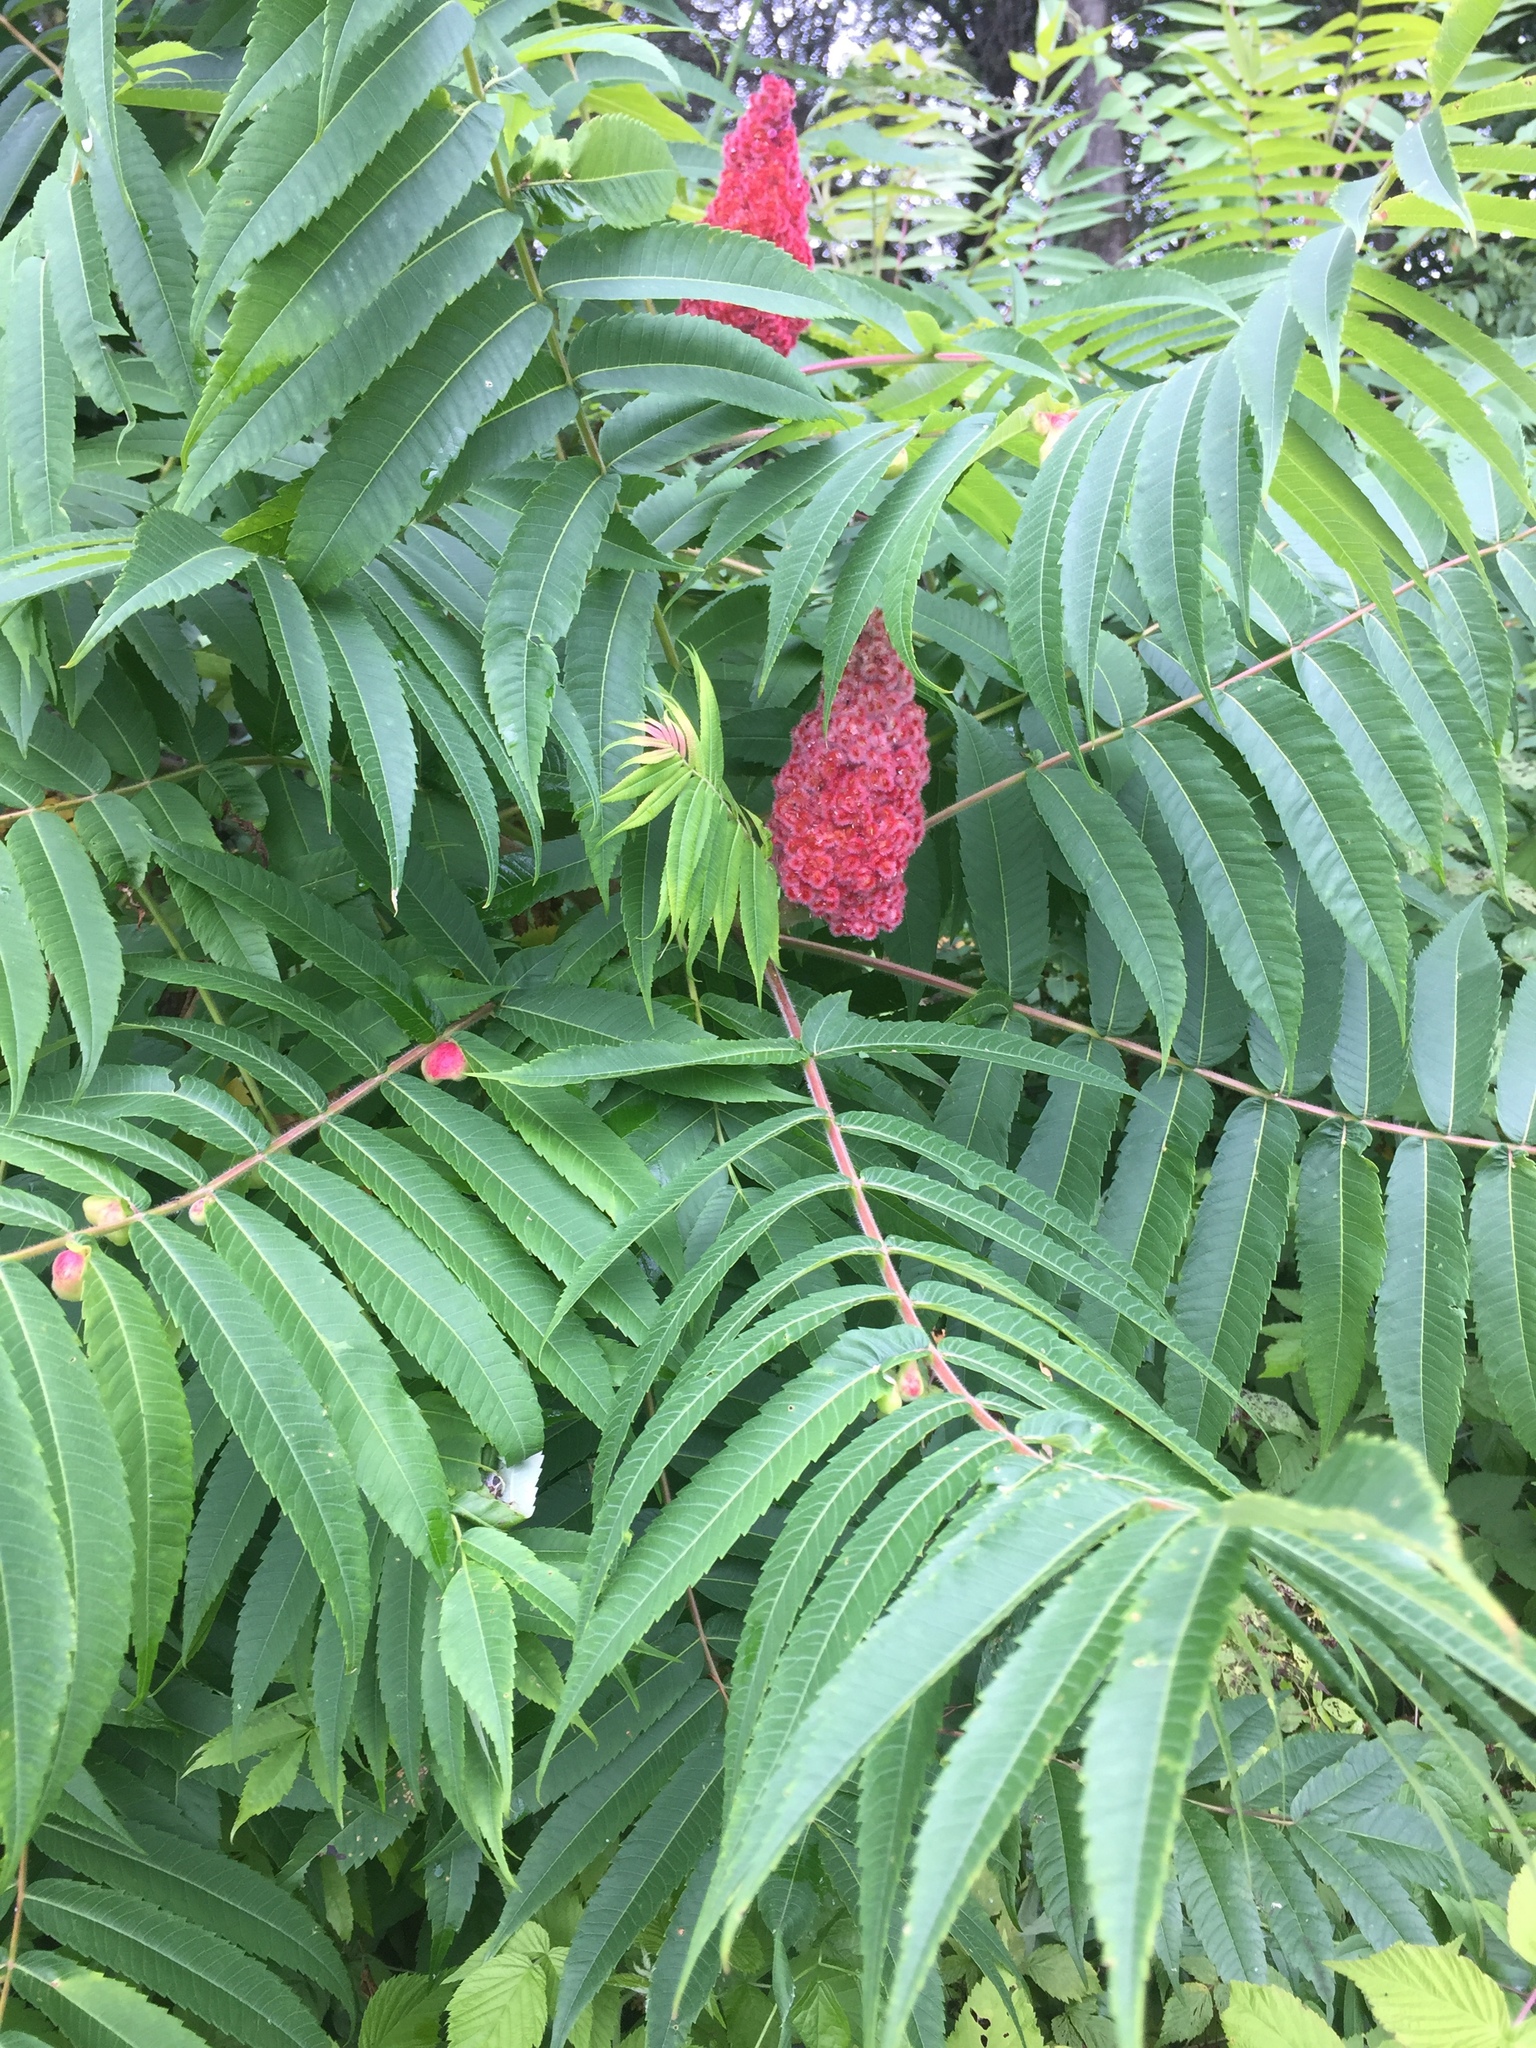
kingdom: Plantae
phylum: Tracheophyta
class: Magnoliopsida
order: Sapindales
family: Anacardiaceae
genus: Rhus
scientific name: Rhus typhina
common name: Staghorn sumac
